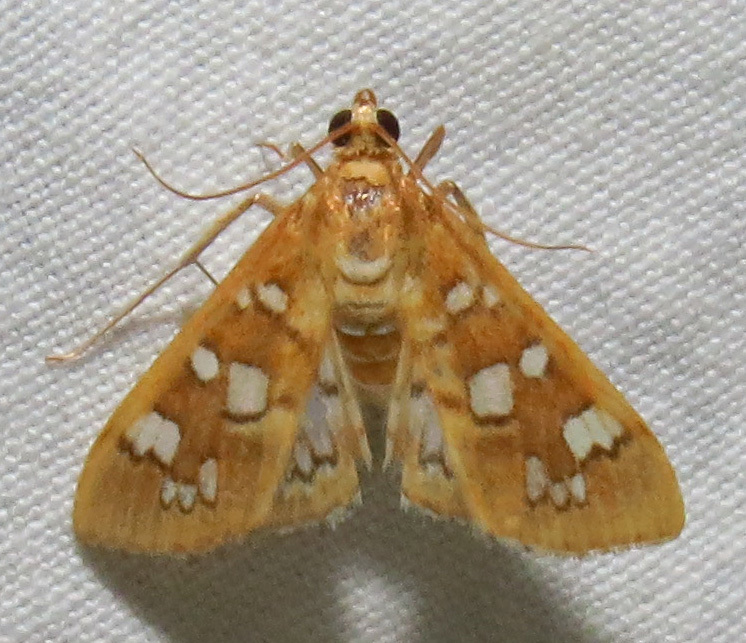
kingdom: Animalia
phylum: Arthropoda
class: Insecta
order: Lepidoptera
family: Crambidae
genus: Samea
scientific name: Samea baccatalis
